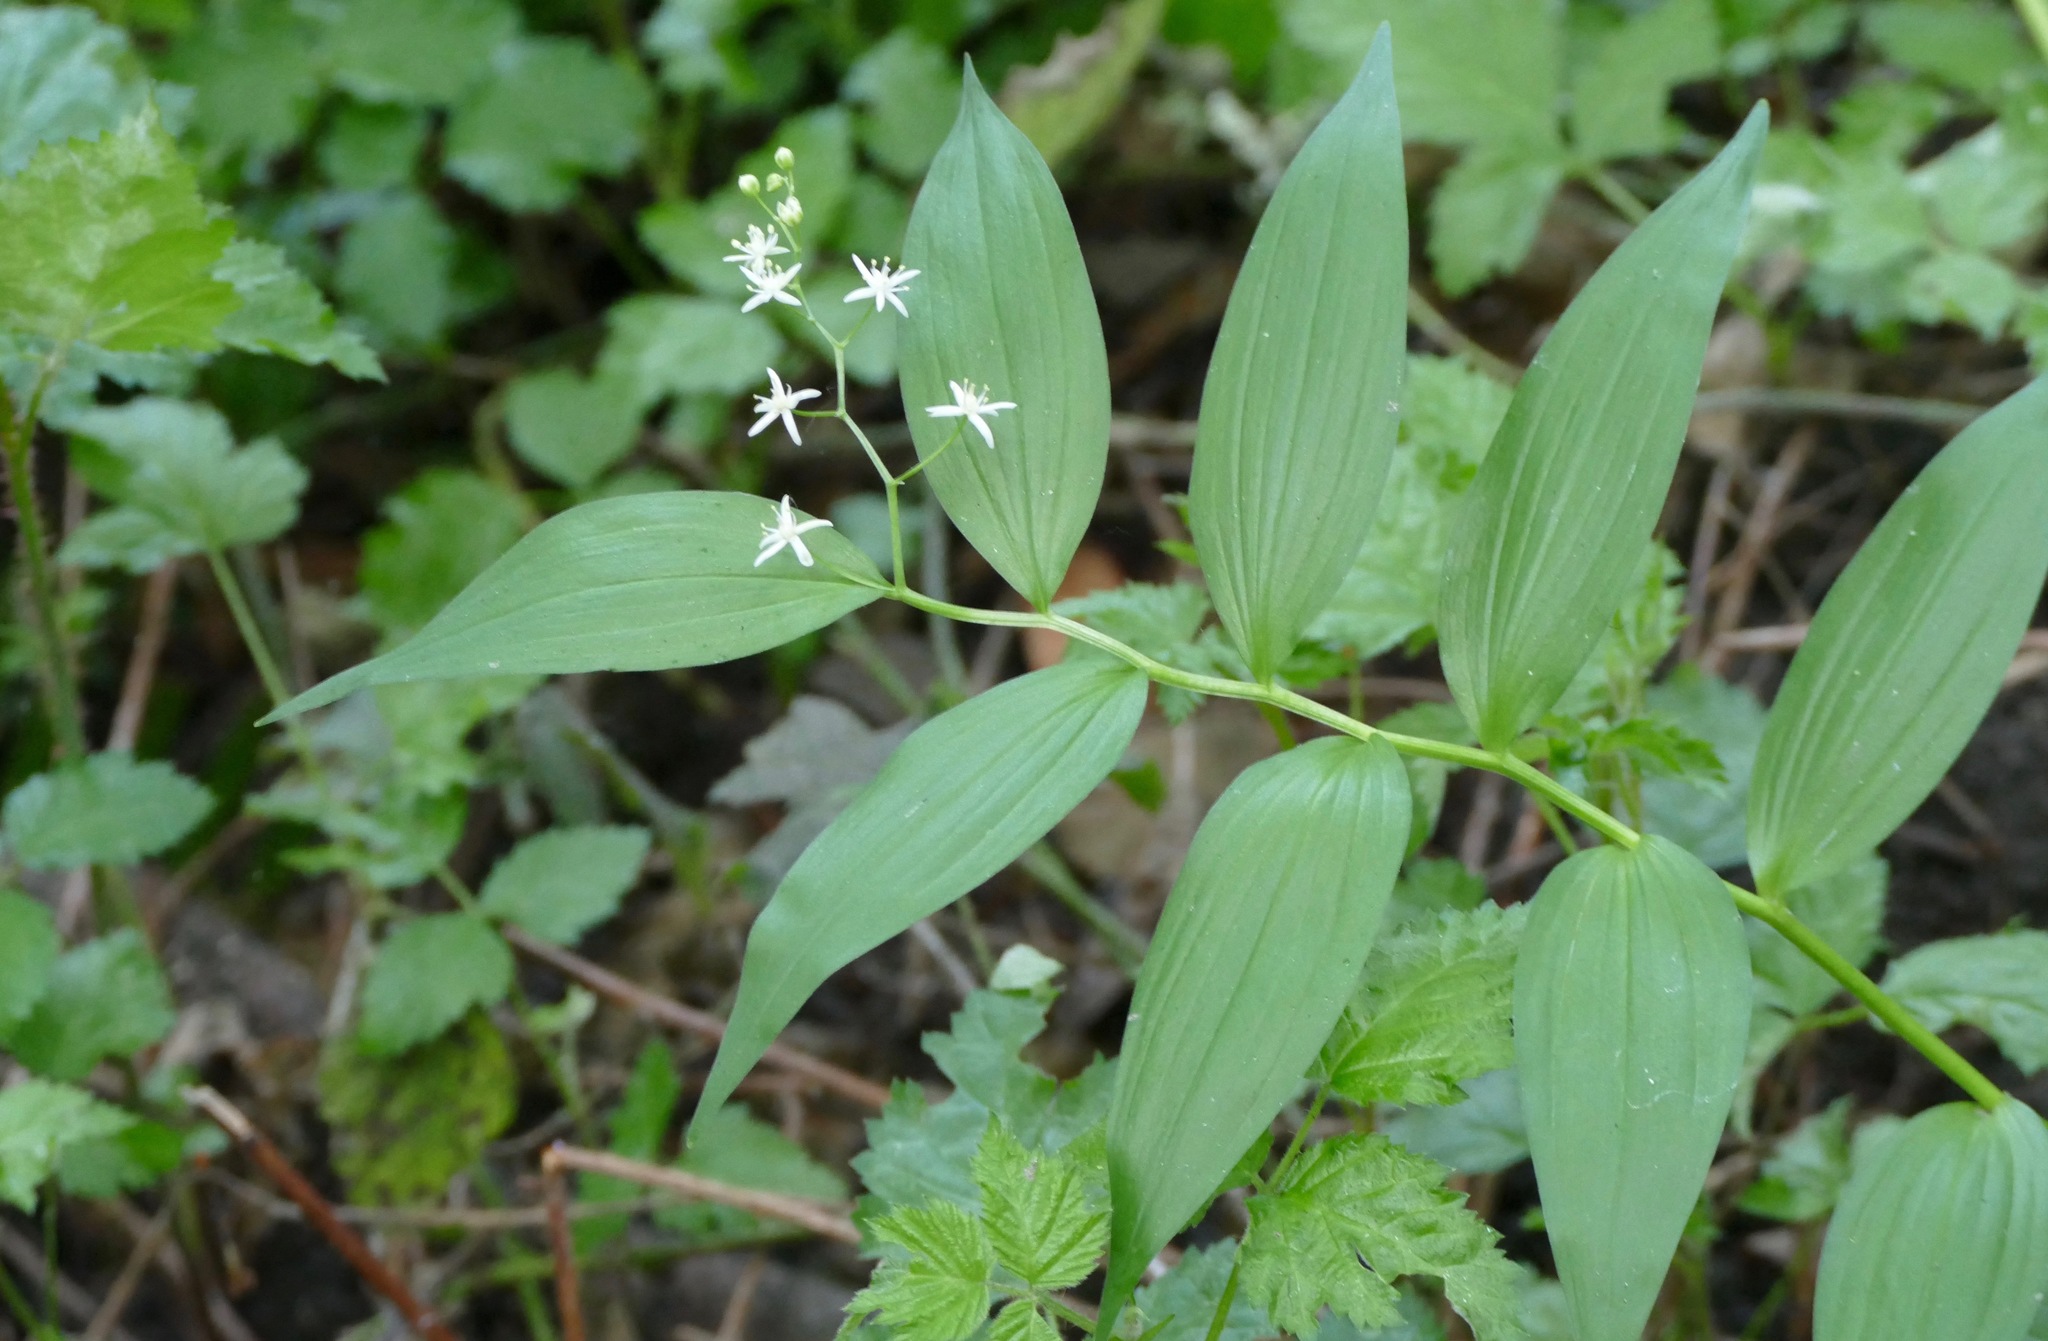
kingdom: Plantae
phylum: Tracheophyta
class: Liliopsida
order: Asparagales
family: Asparagaceae
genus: Maianthemum
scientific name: Maianthemum stellatum
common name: Little false solomon's seal
